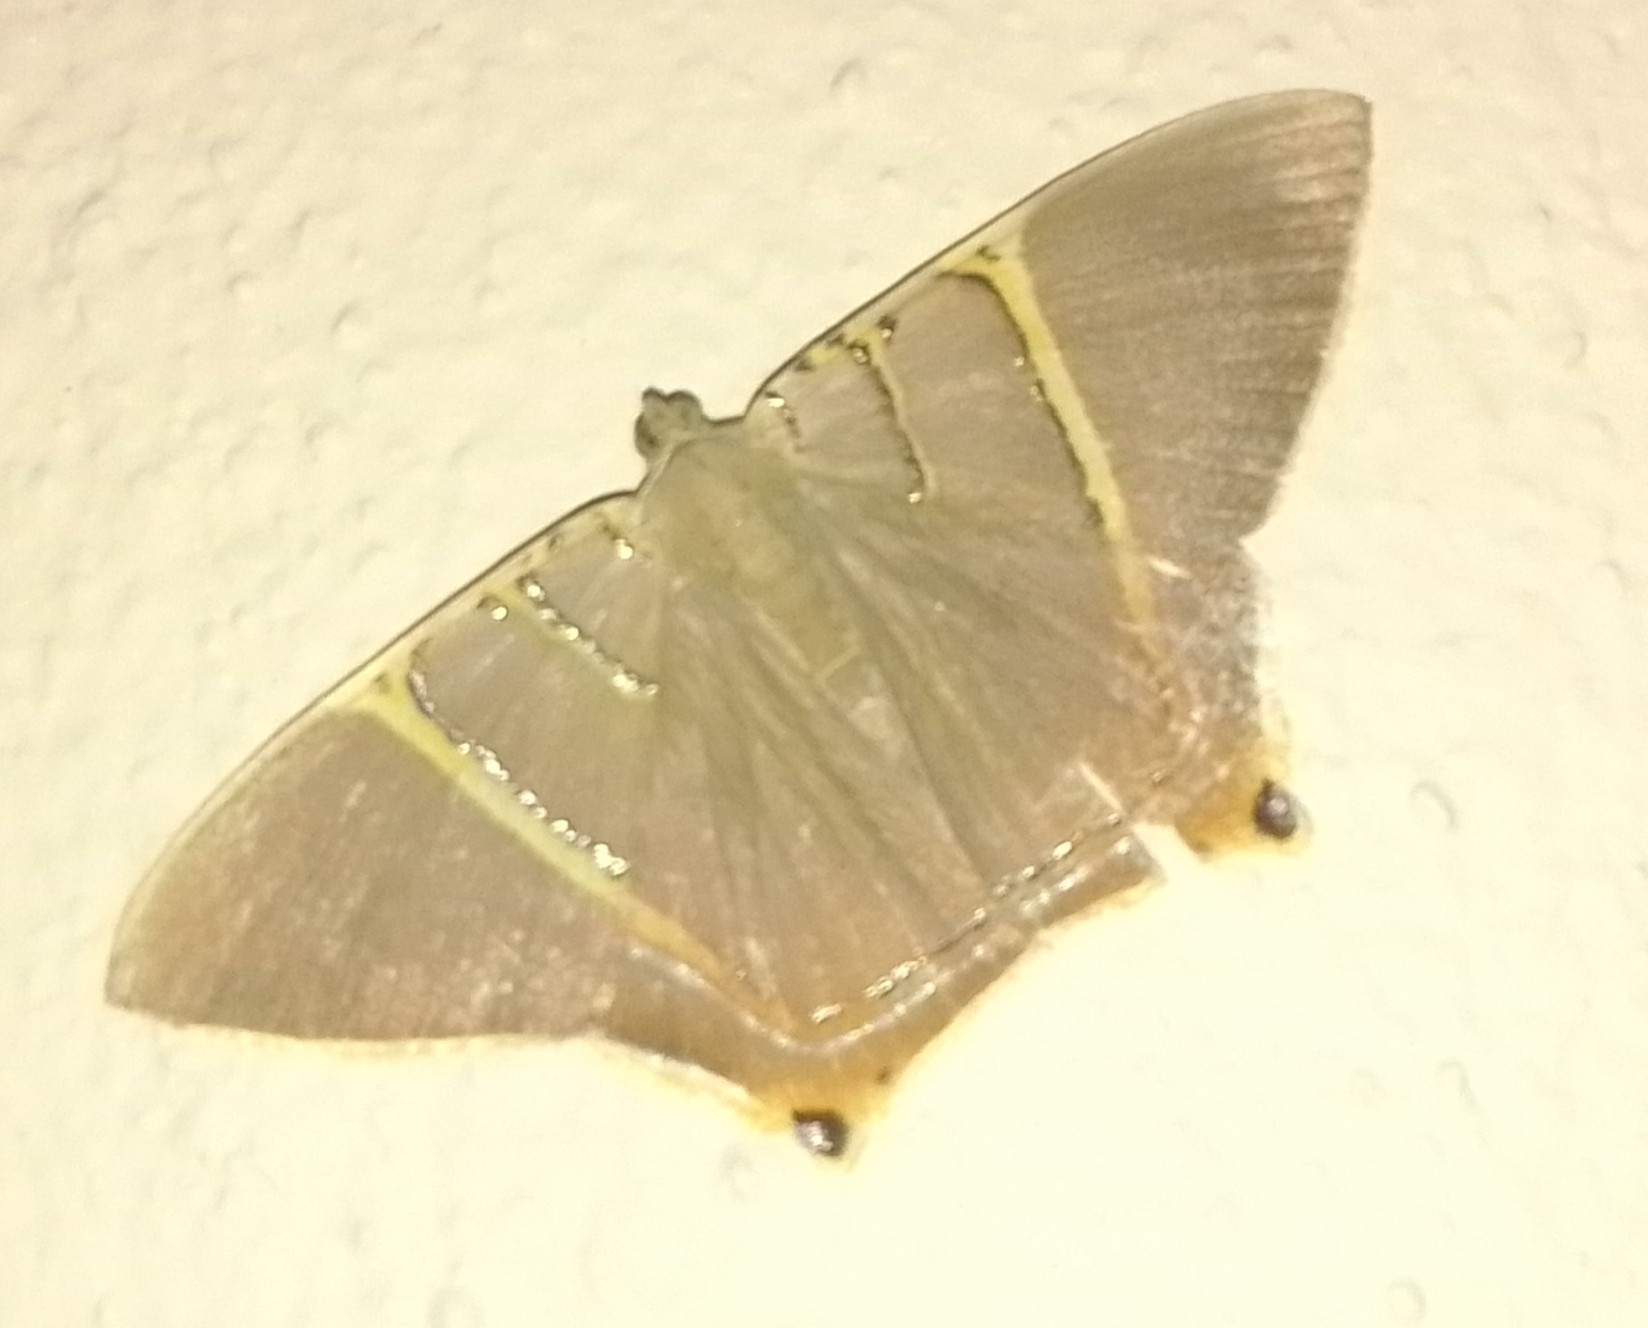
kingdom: Animalia
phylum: Arthropoda
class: Insecta
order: Lepidoptera
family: Geometridae
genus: Phrygionis
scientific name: Phrygionis polita
